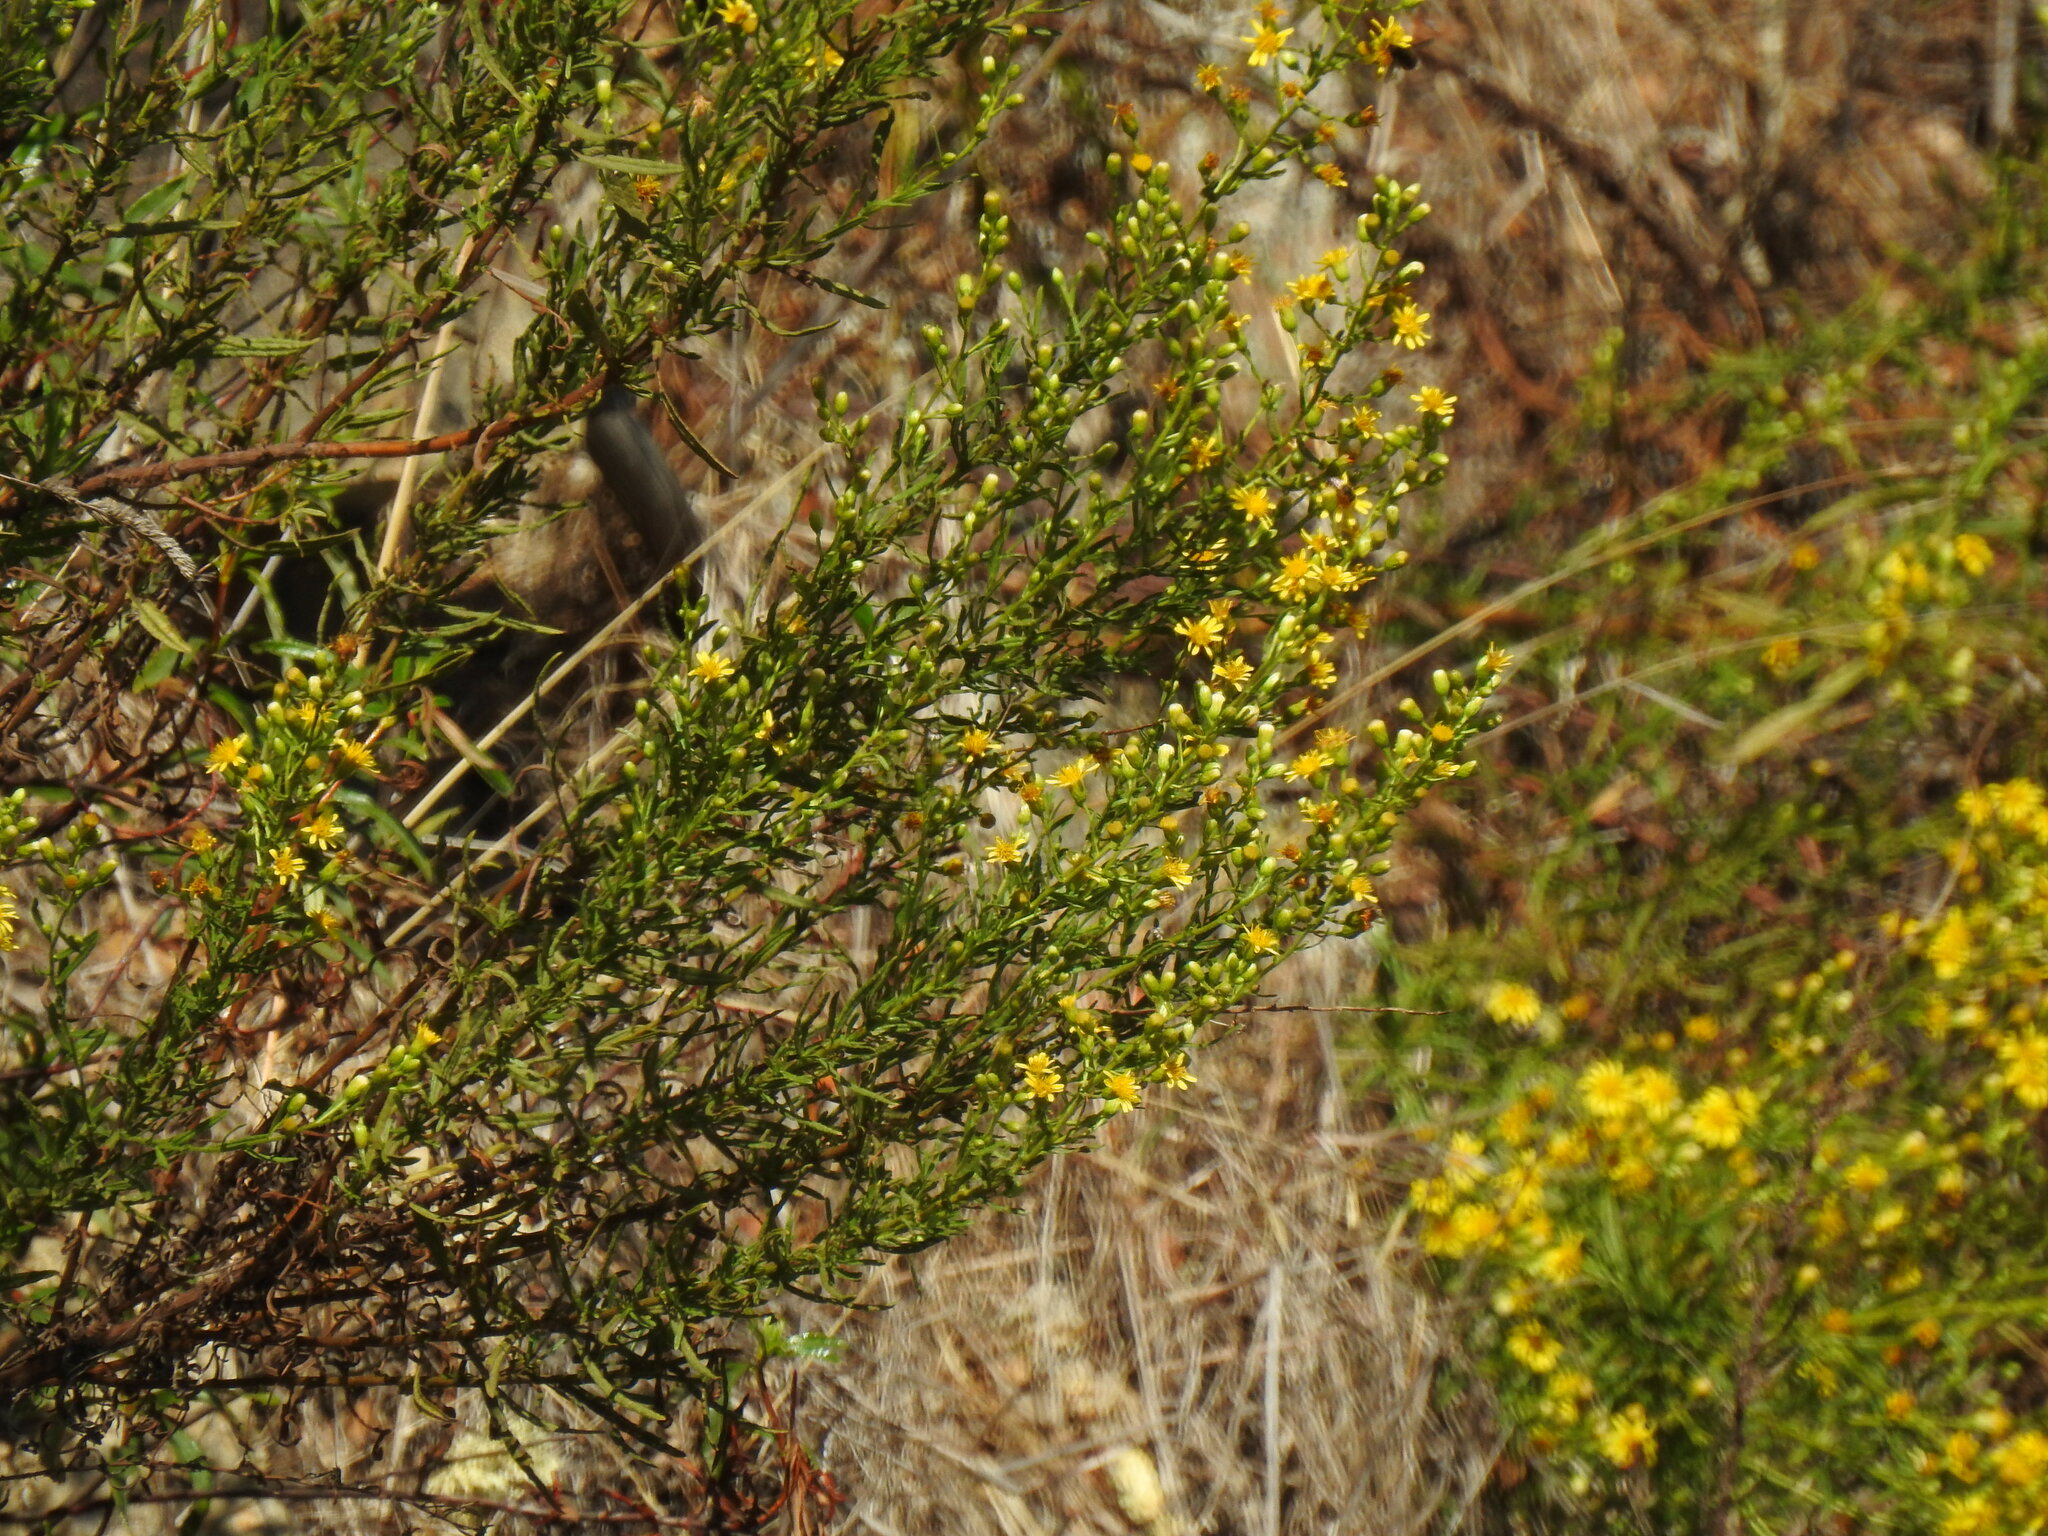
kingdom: Plantae
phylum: Tracheophyta
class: Magnoliopsida
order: Asterales
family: Asteraceae
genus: Dittrichia
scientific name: Dittrichia viscosa
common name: Woody fleabane
